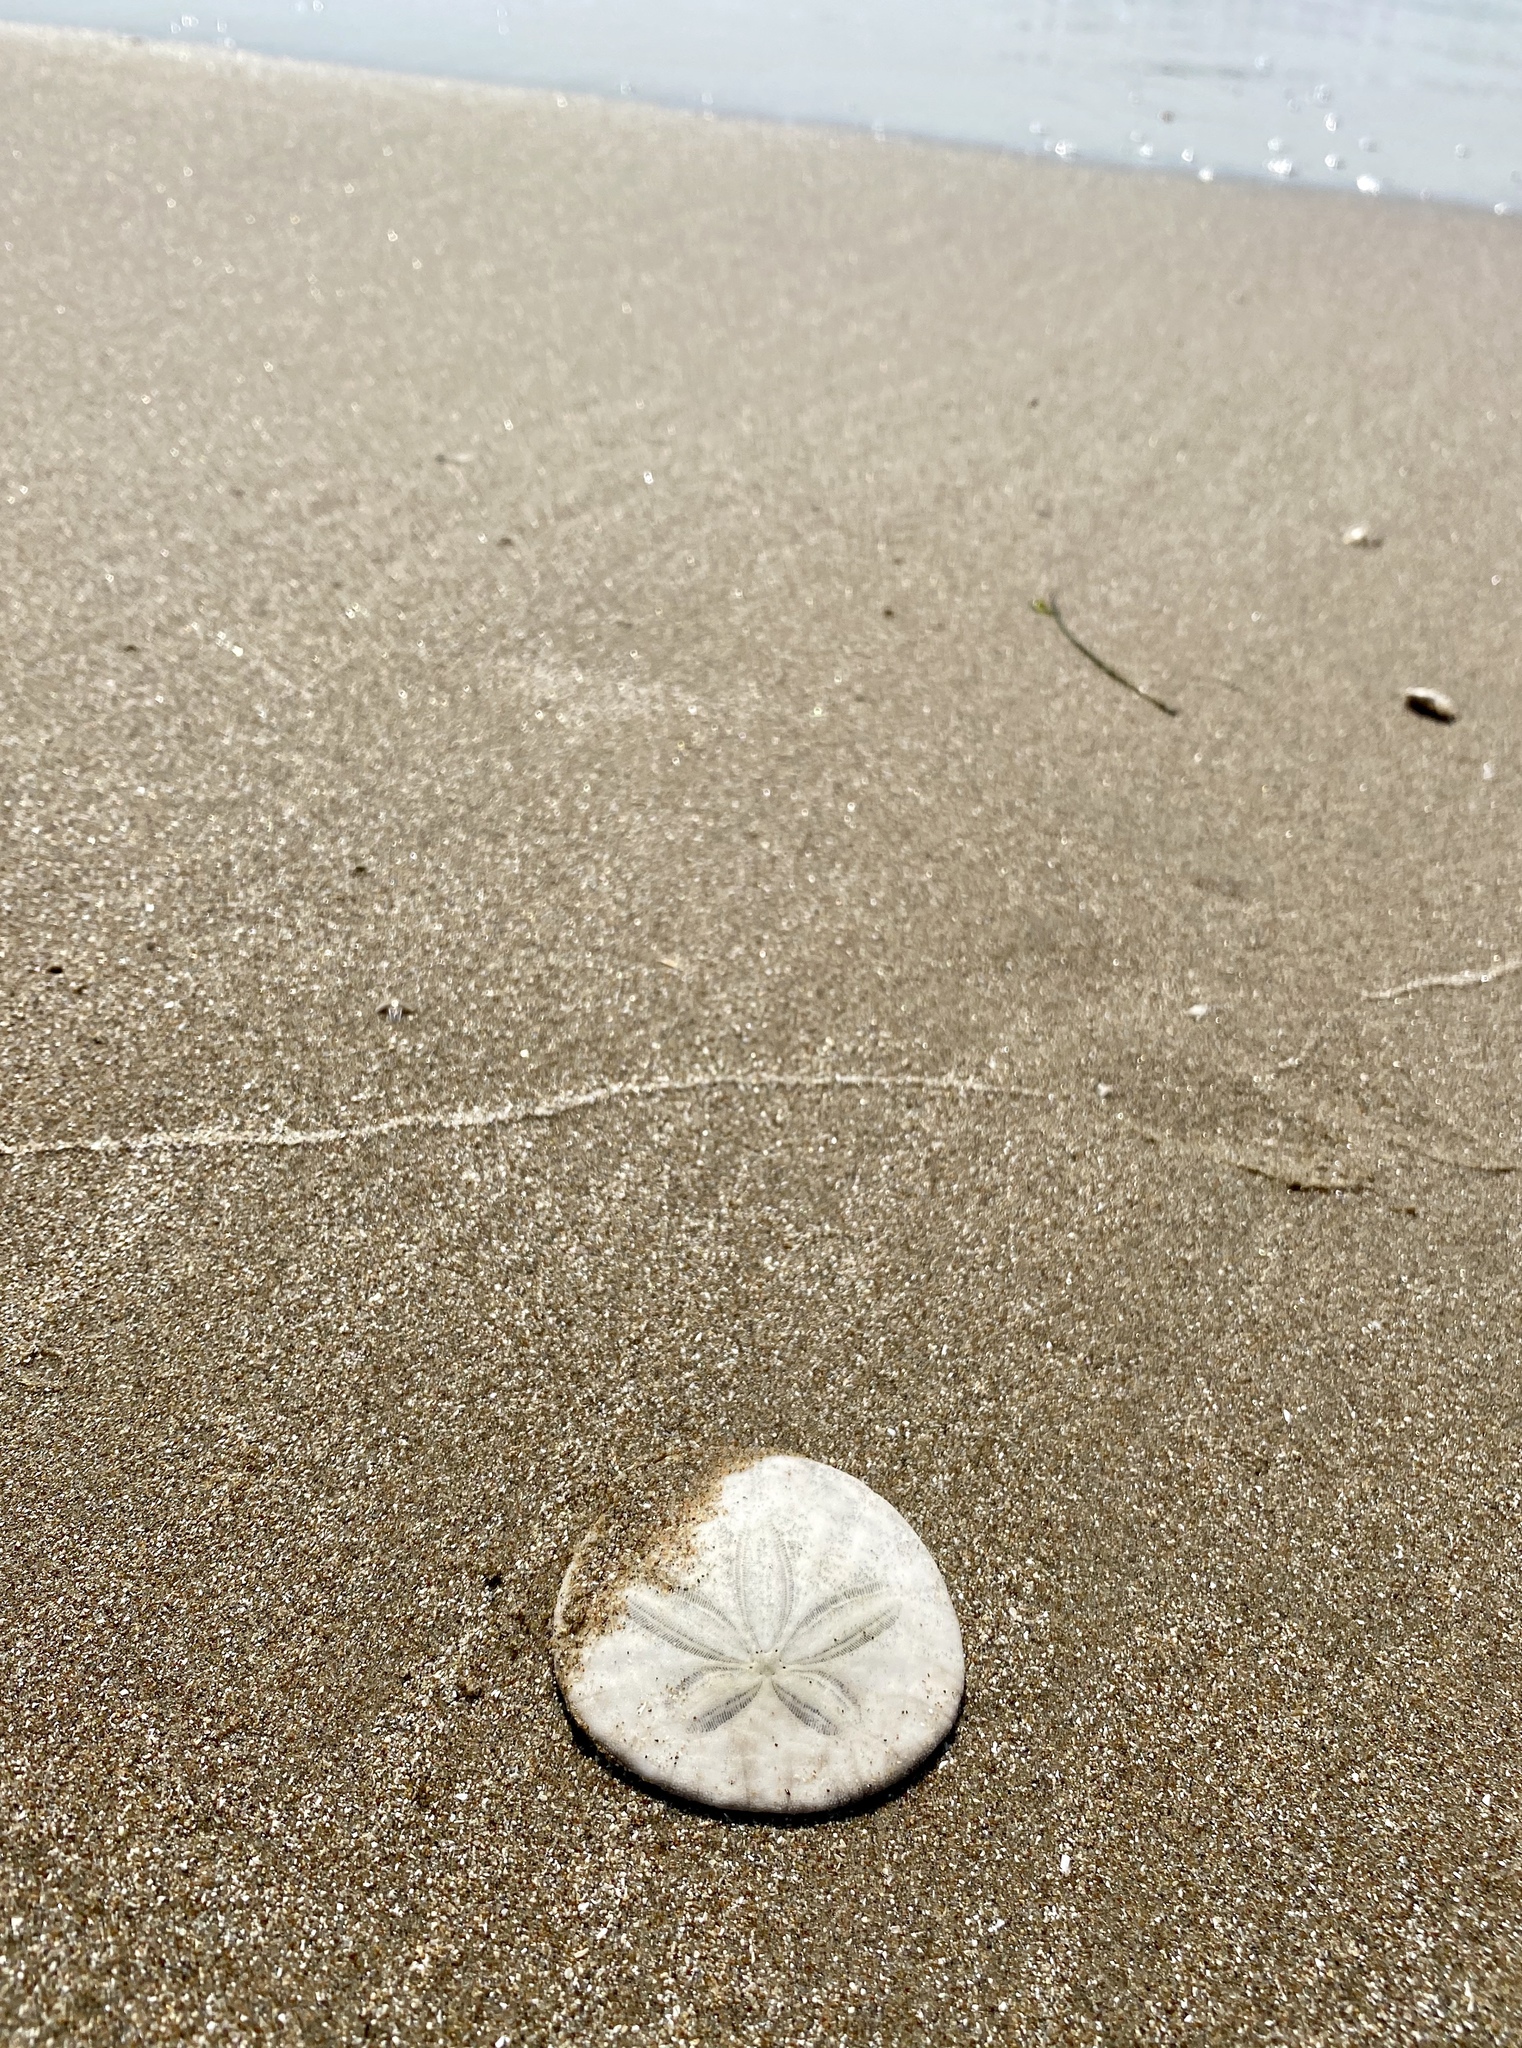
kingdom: Animalia
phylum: Echinodermata
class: Echinoidea
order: Echinolampadacea
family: Dendrasteridae
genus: Dendraster
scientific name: Dendraster excentricus
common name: Eccentric sand dollar sea urchin
